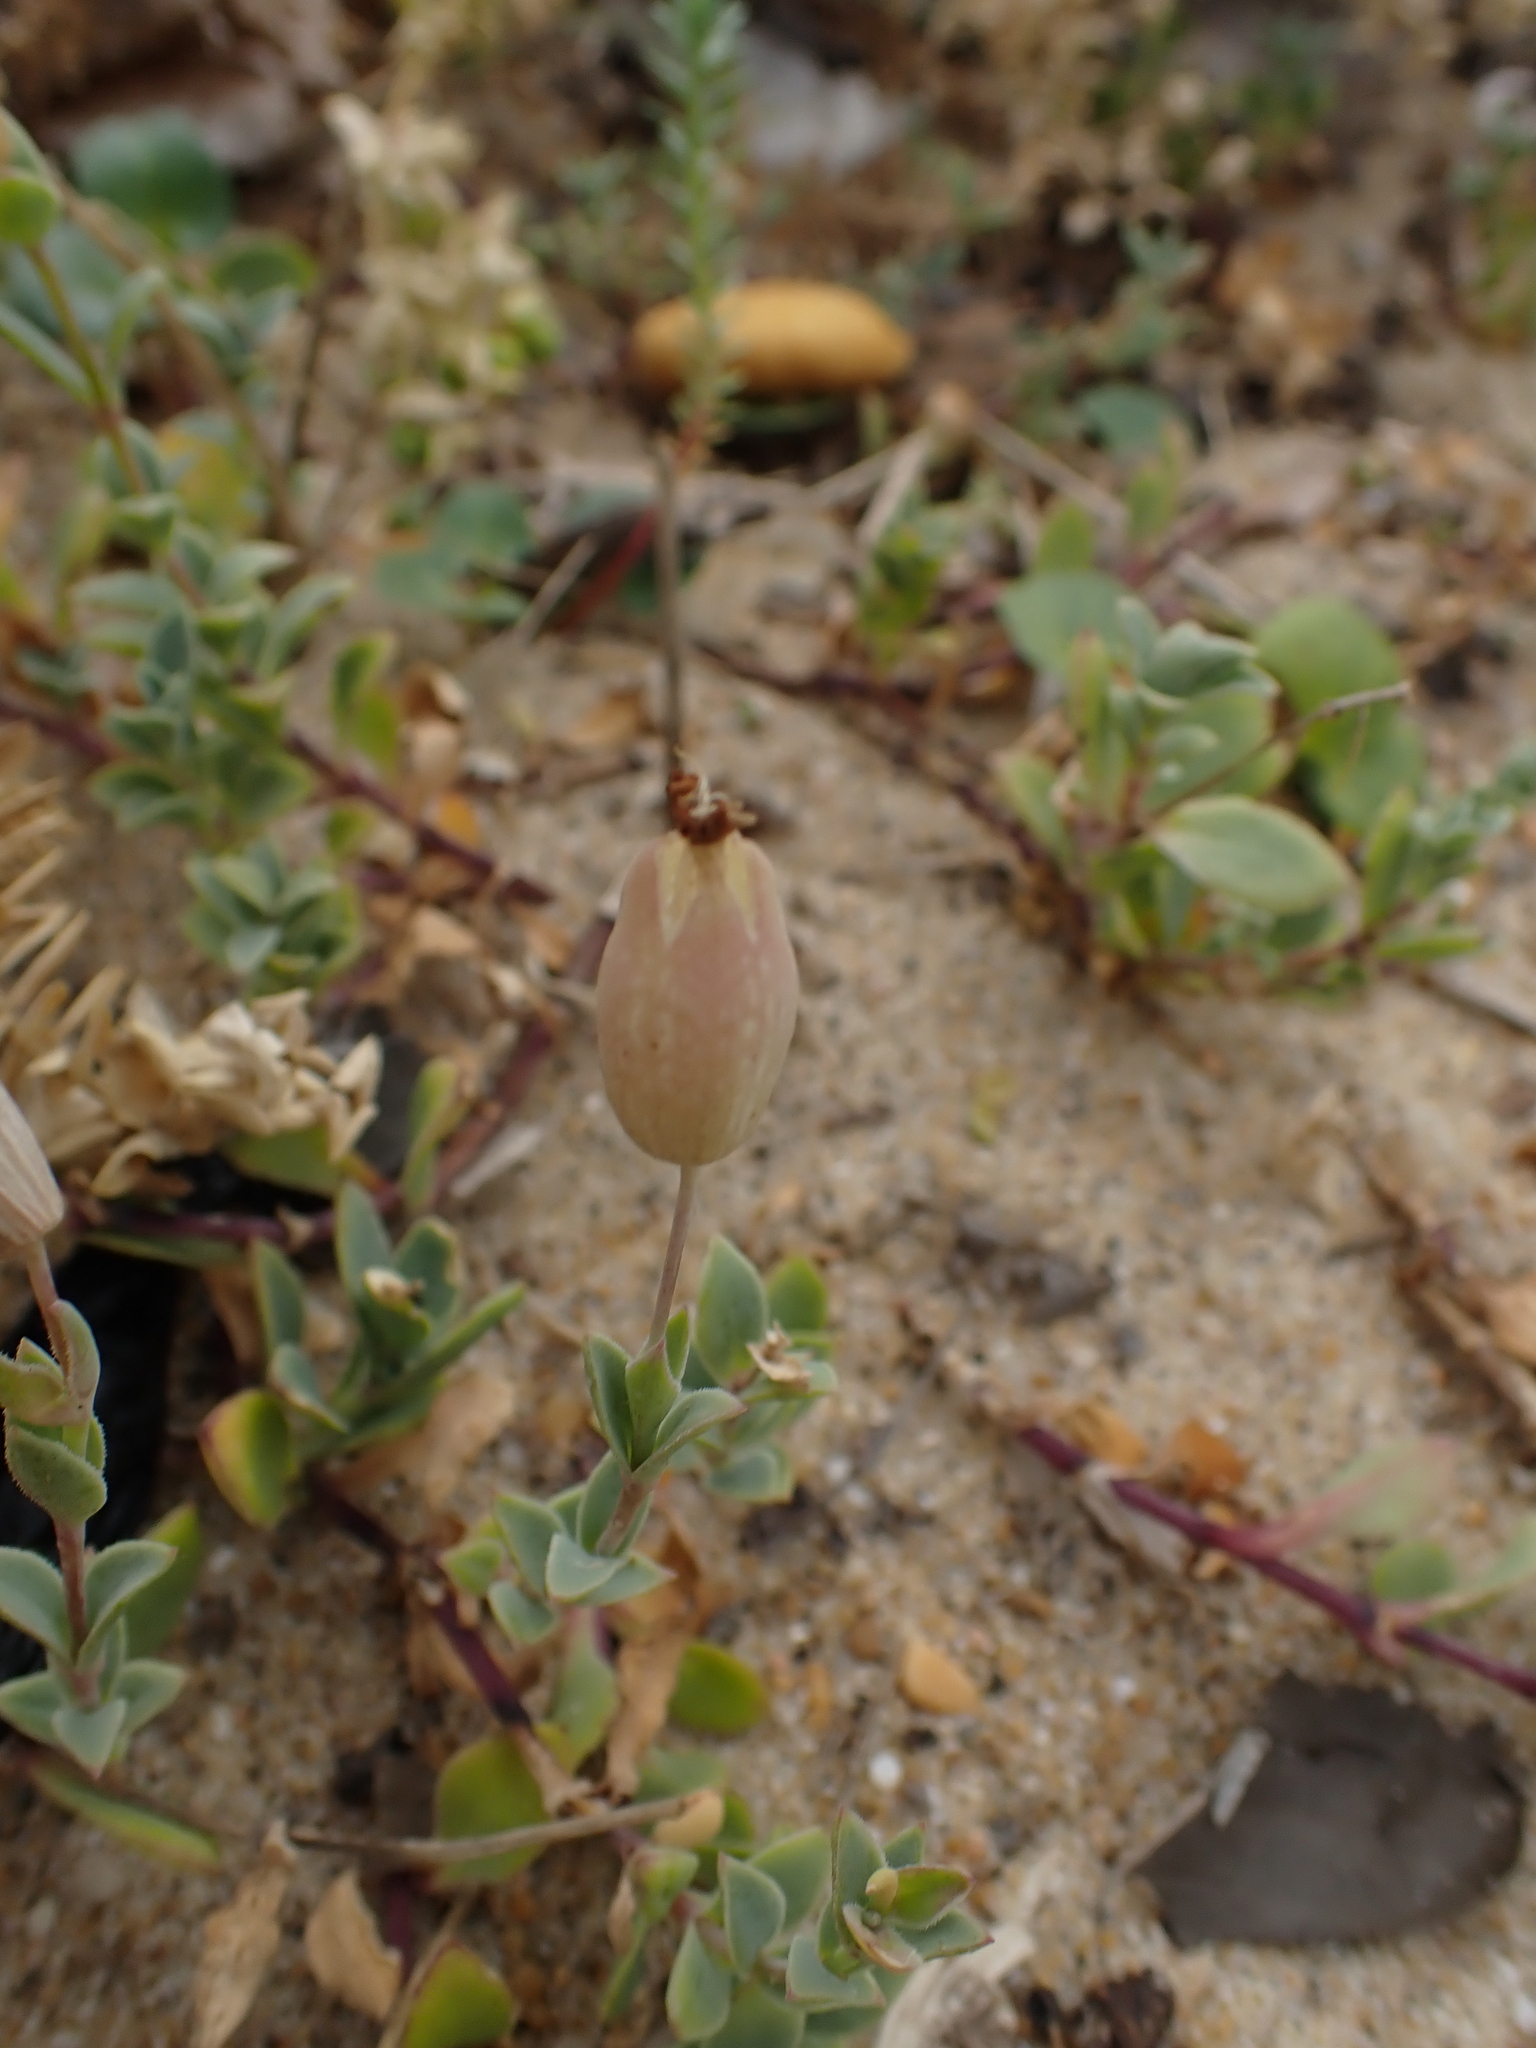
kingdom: Plantae
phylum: Tracheophyta
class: Magnoliopsida
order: Caryophyllales
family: Caryophyllaceae
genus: Silene
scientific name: Silene uniflora
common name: Sea campion
